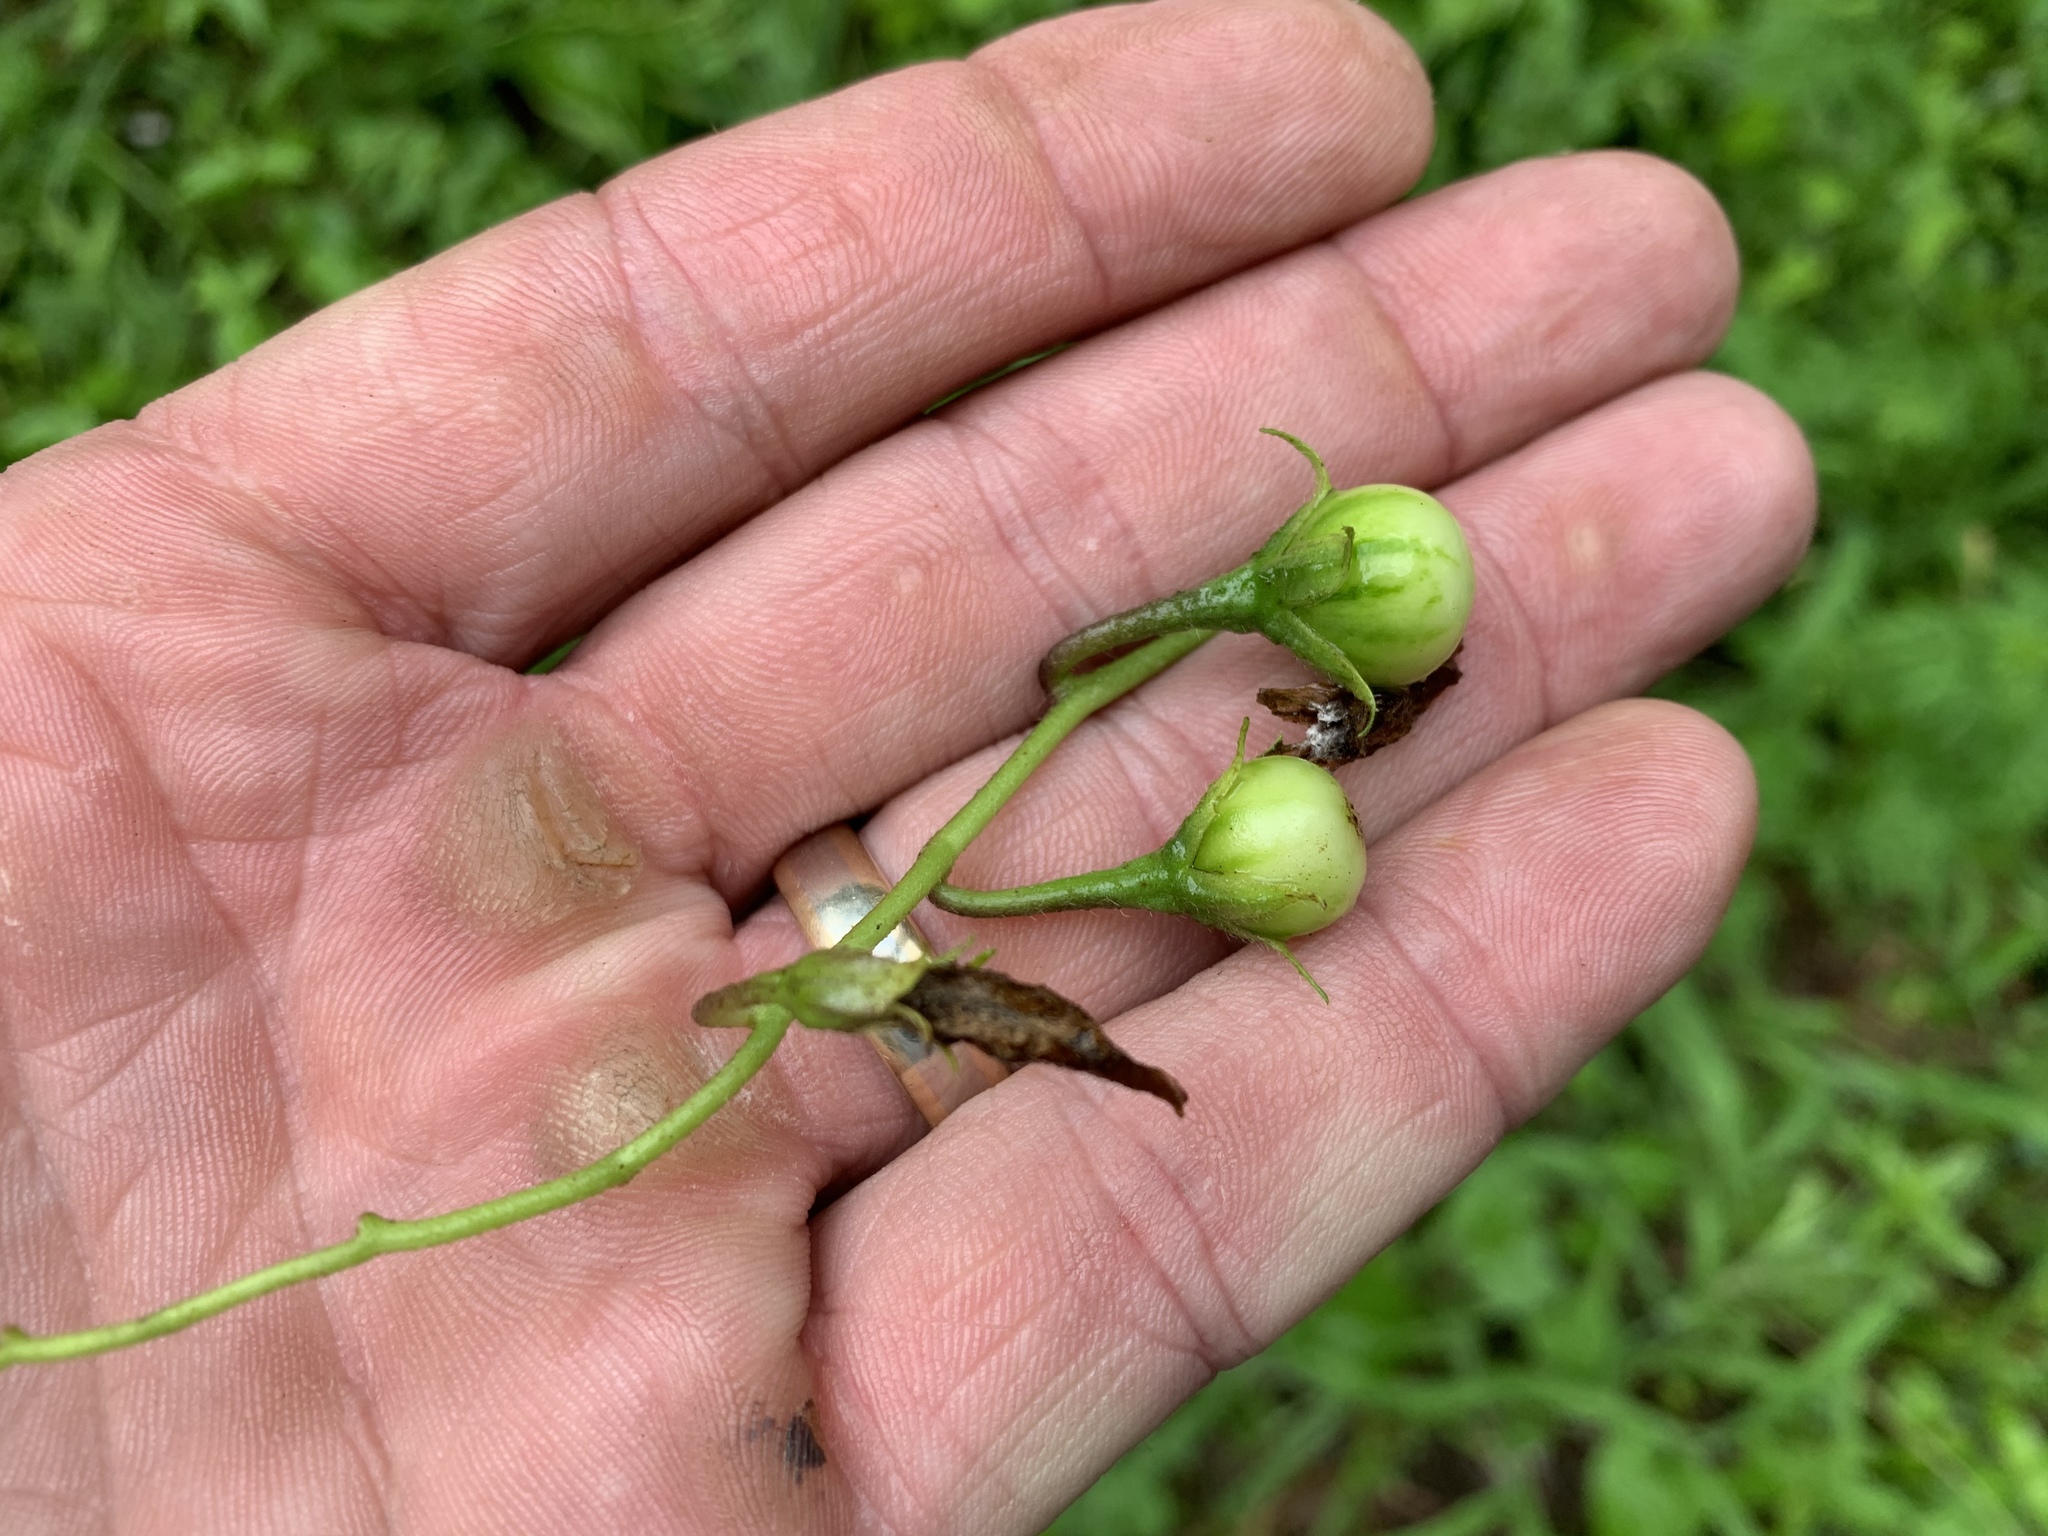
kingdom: Plantae
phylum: Tracheophyta
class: Magnoliopsida
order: Solanales
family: Solanaceae
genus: Solanum
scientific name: Solanum carolinense
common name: Horse-nettle
